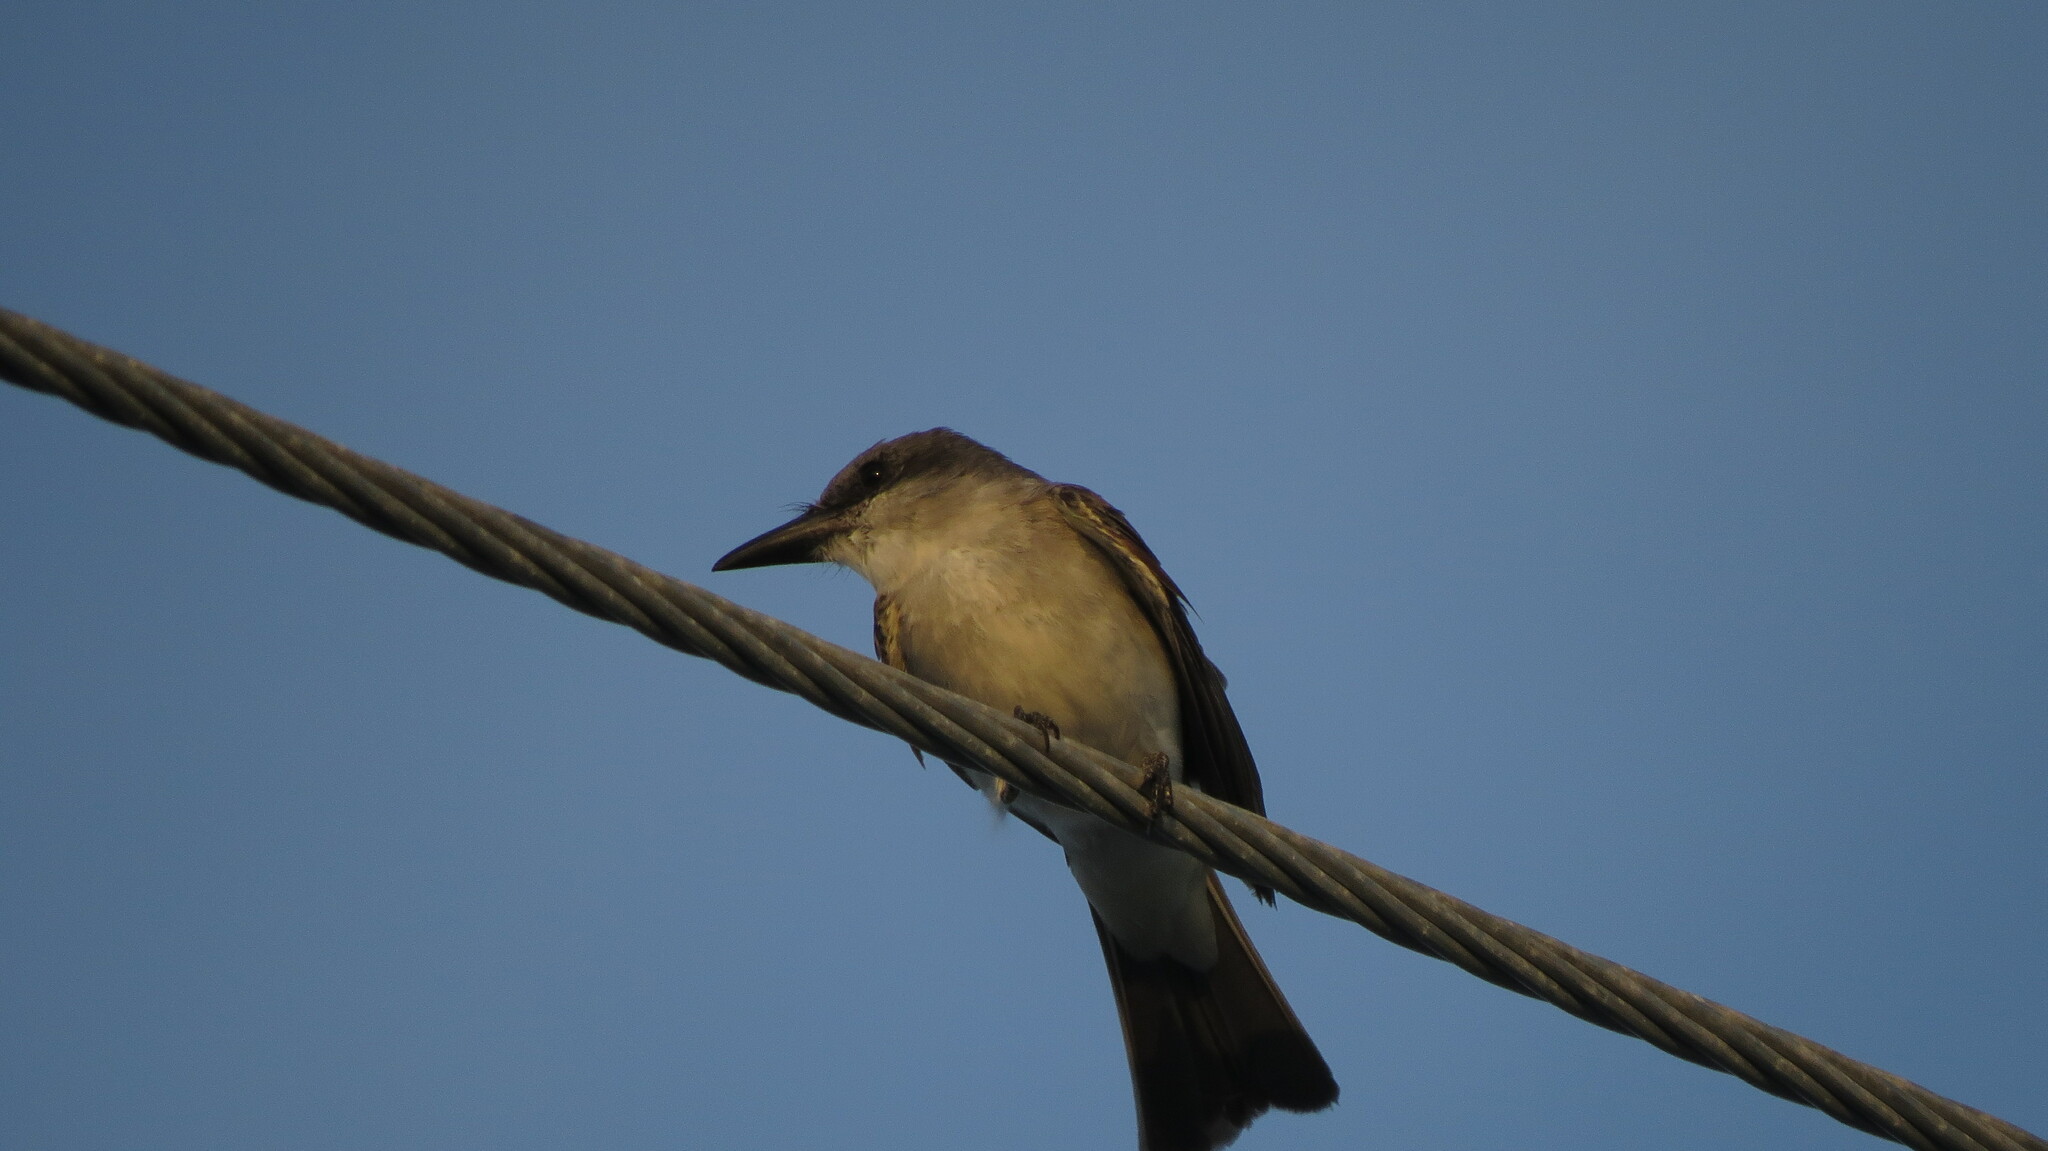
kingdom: Animalia
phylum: Chordata
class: Aves
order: Passeriformes
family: Tyrannidae
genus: Tyrannus
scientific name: Tyrannus dominicensis
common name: Gray kingbird
